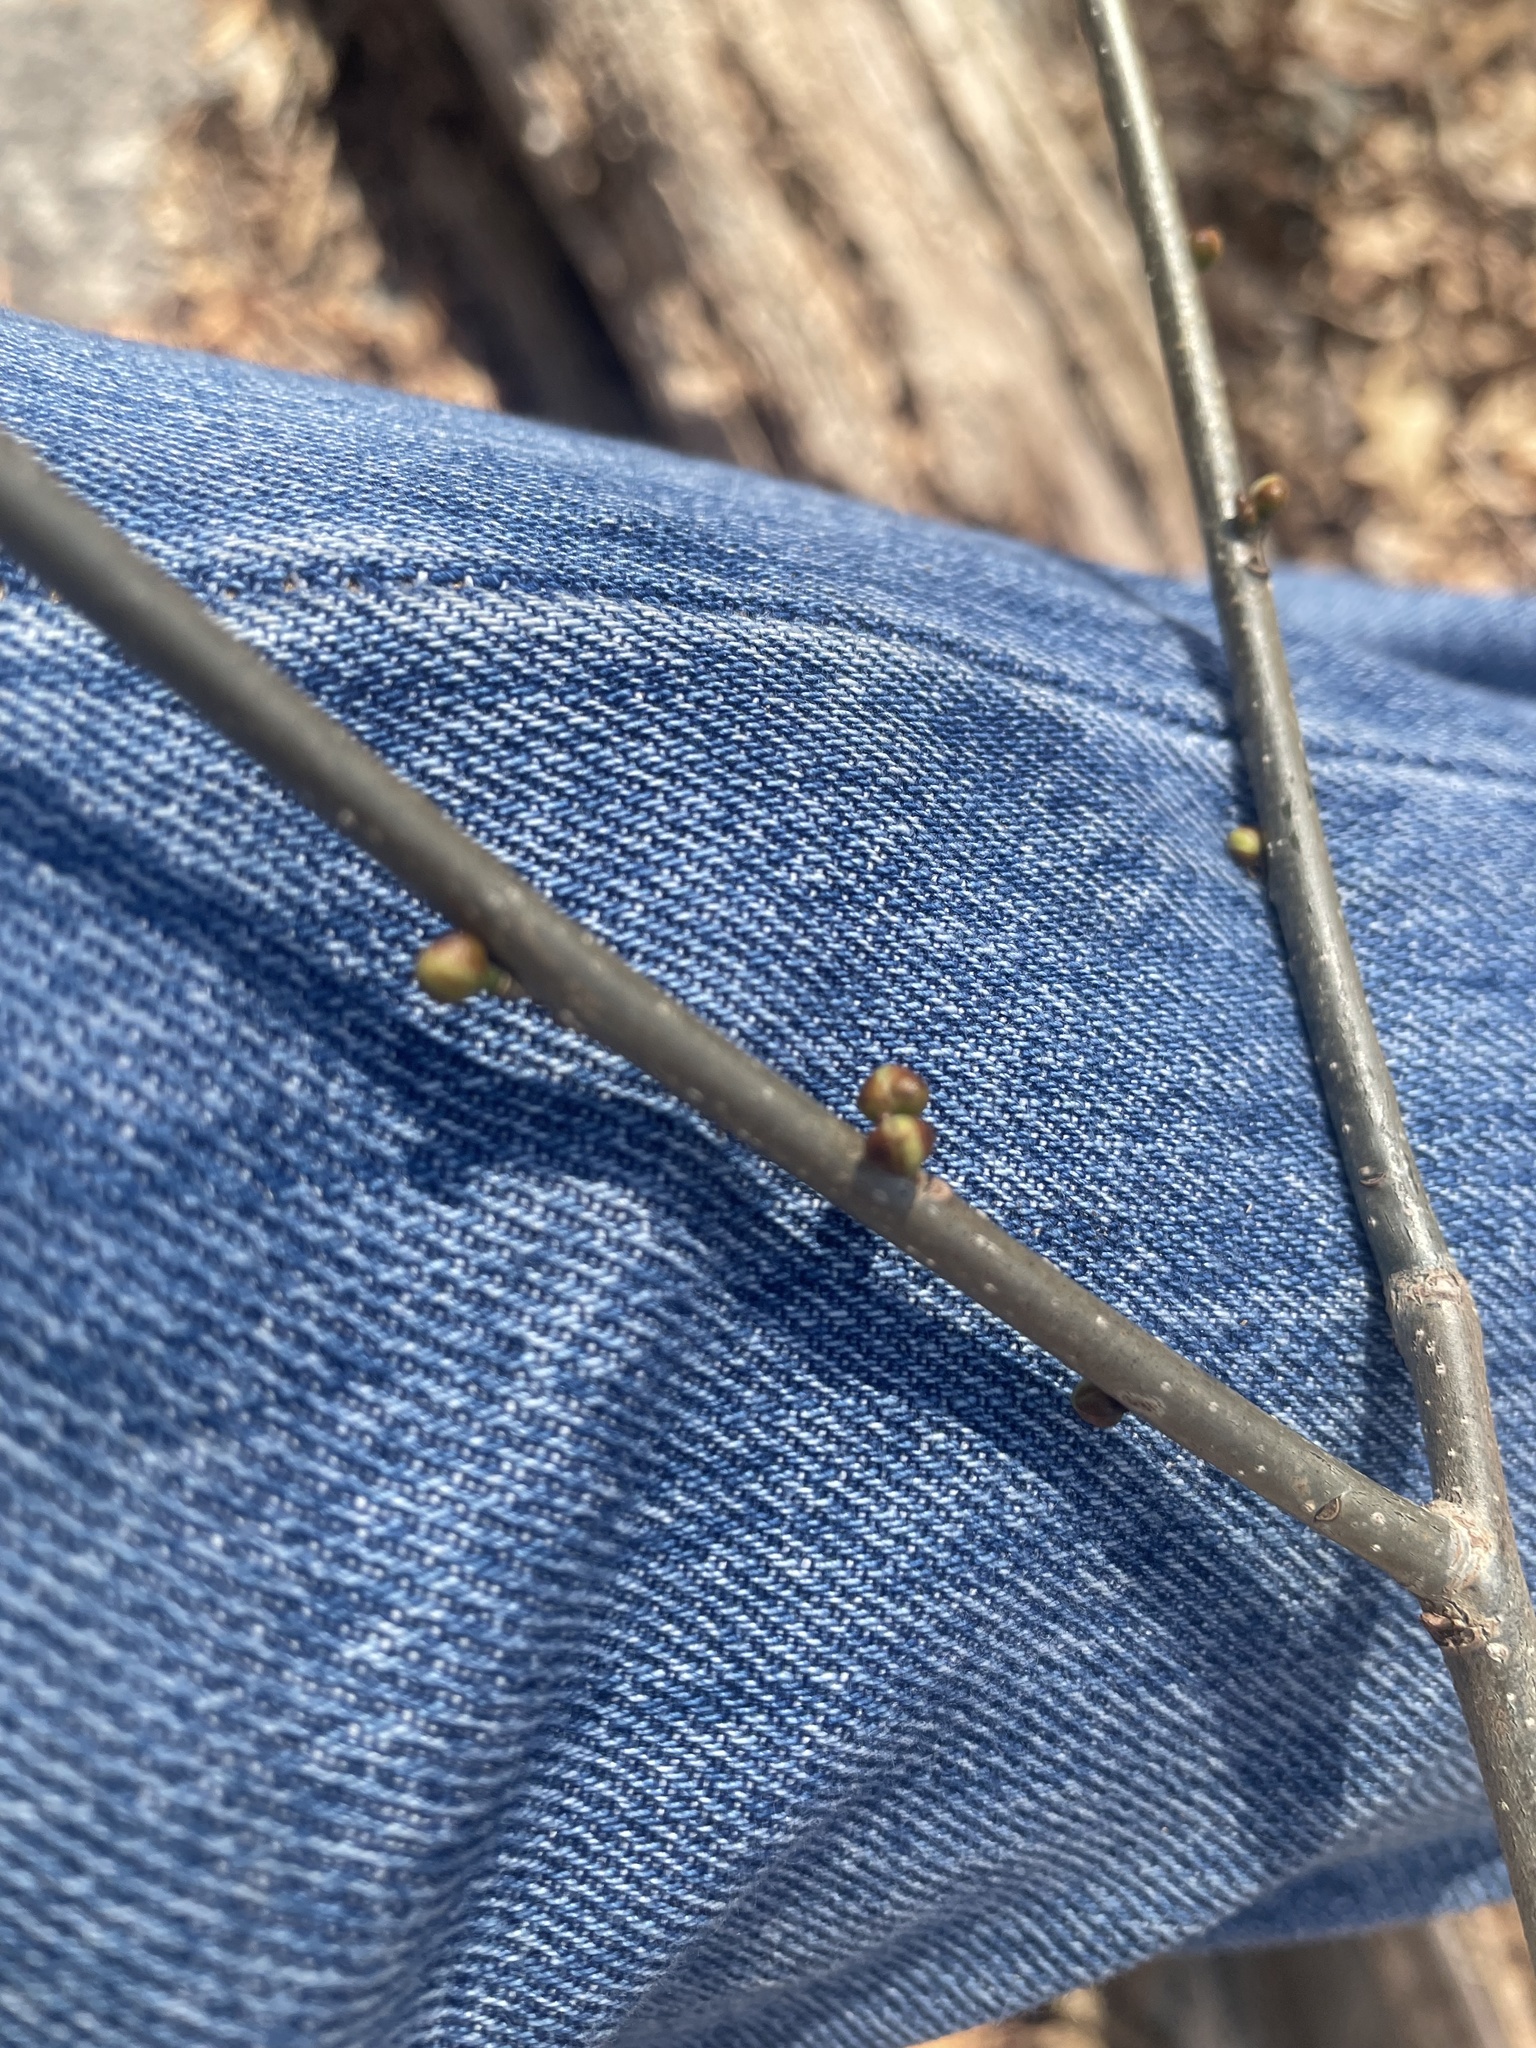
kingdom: Plantae
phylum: Tracheophyta
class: Magnoliopsida
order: Laurales
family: Lauraceae
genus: Lindera
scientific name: Lindera benzoin
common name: Spicebush
